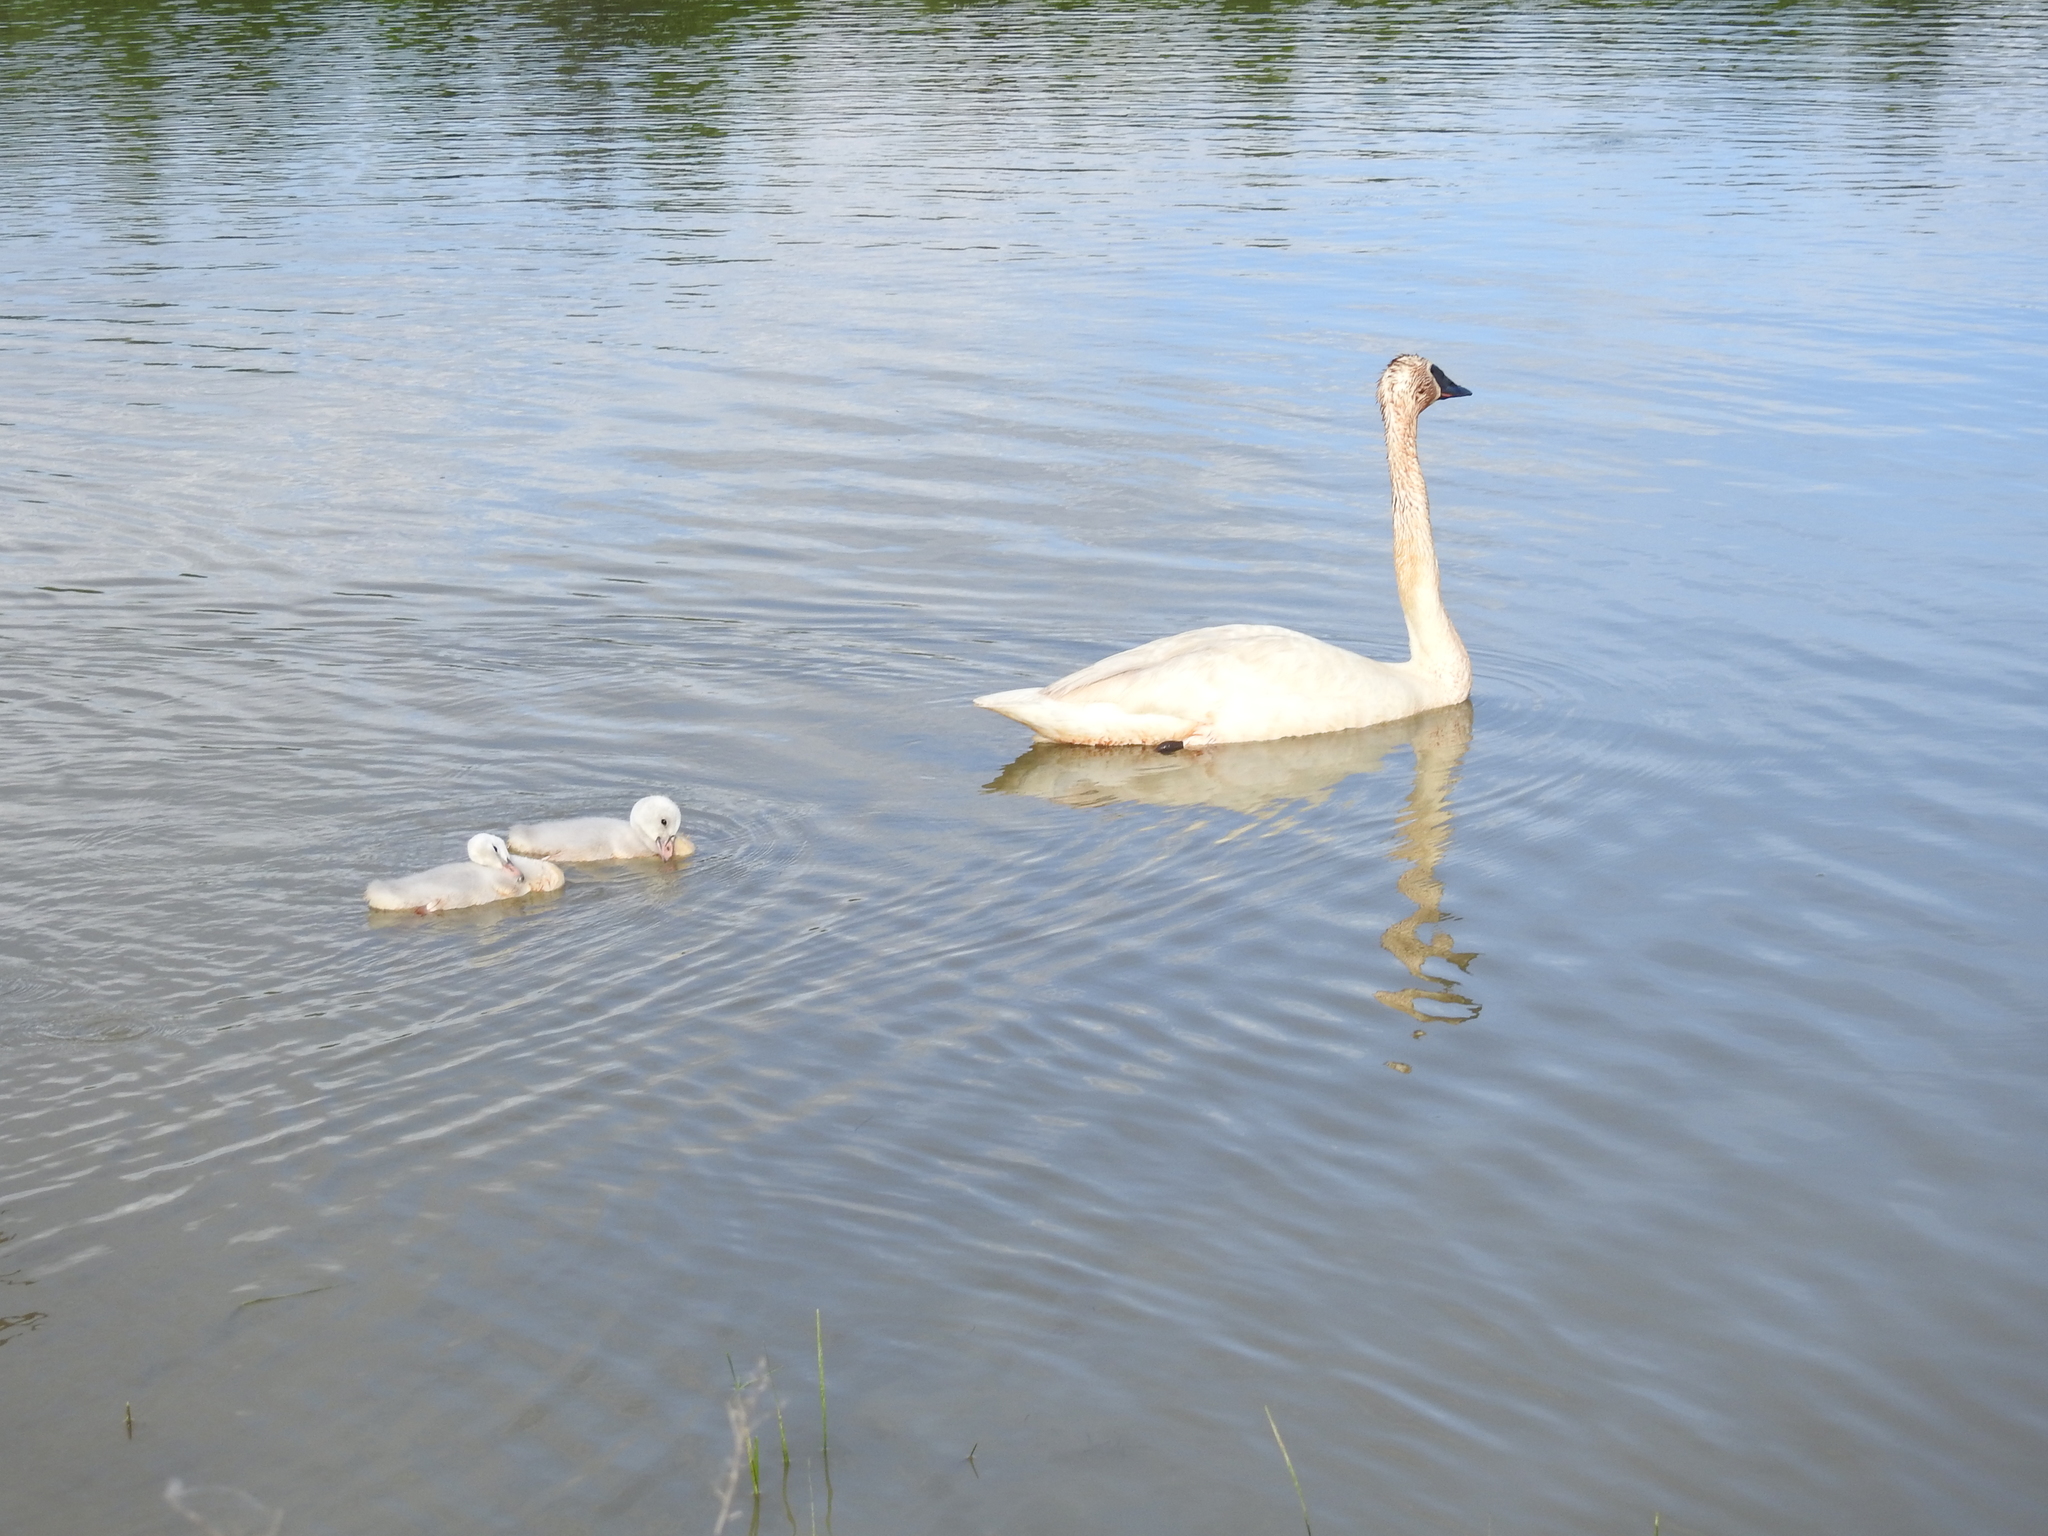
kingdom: Animalia
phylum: Chordata
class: Aves
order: Anseriformes
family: Anatidae
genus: Cygnus
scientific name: Cygnus buccinator
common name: Trumpeter swan
